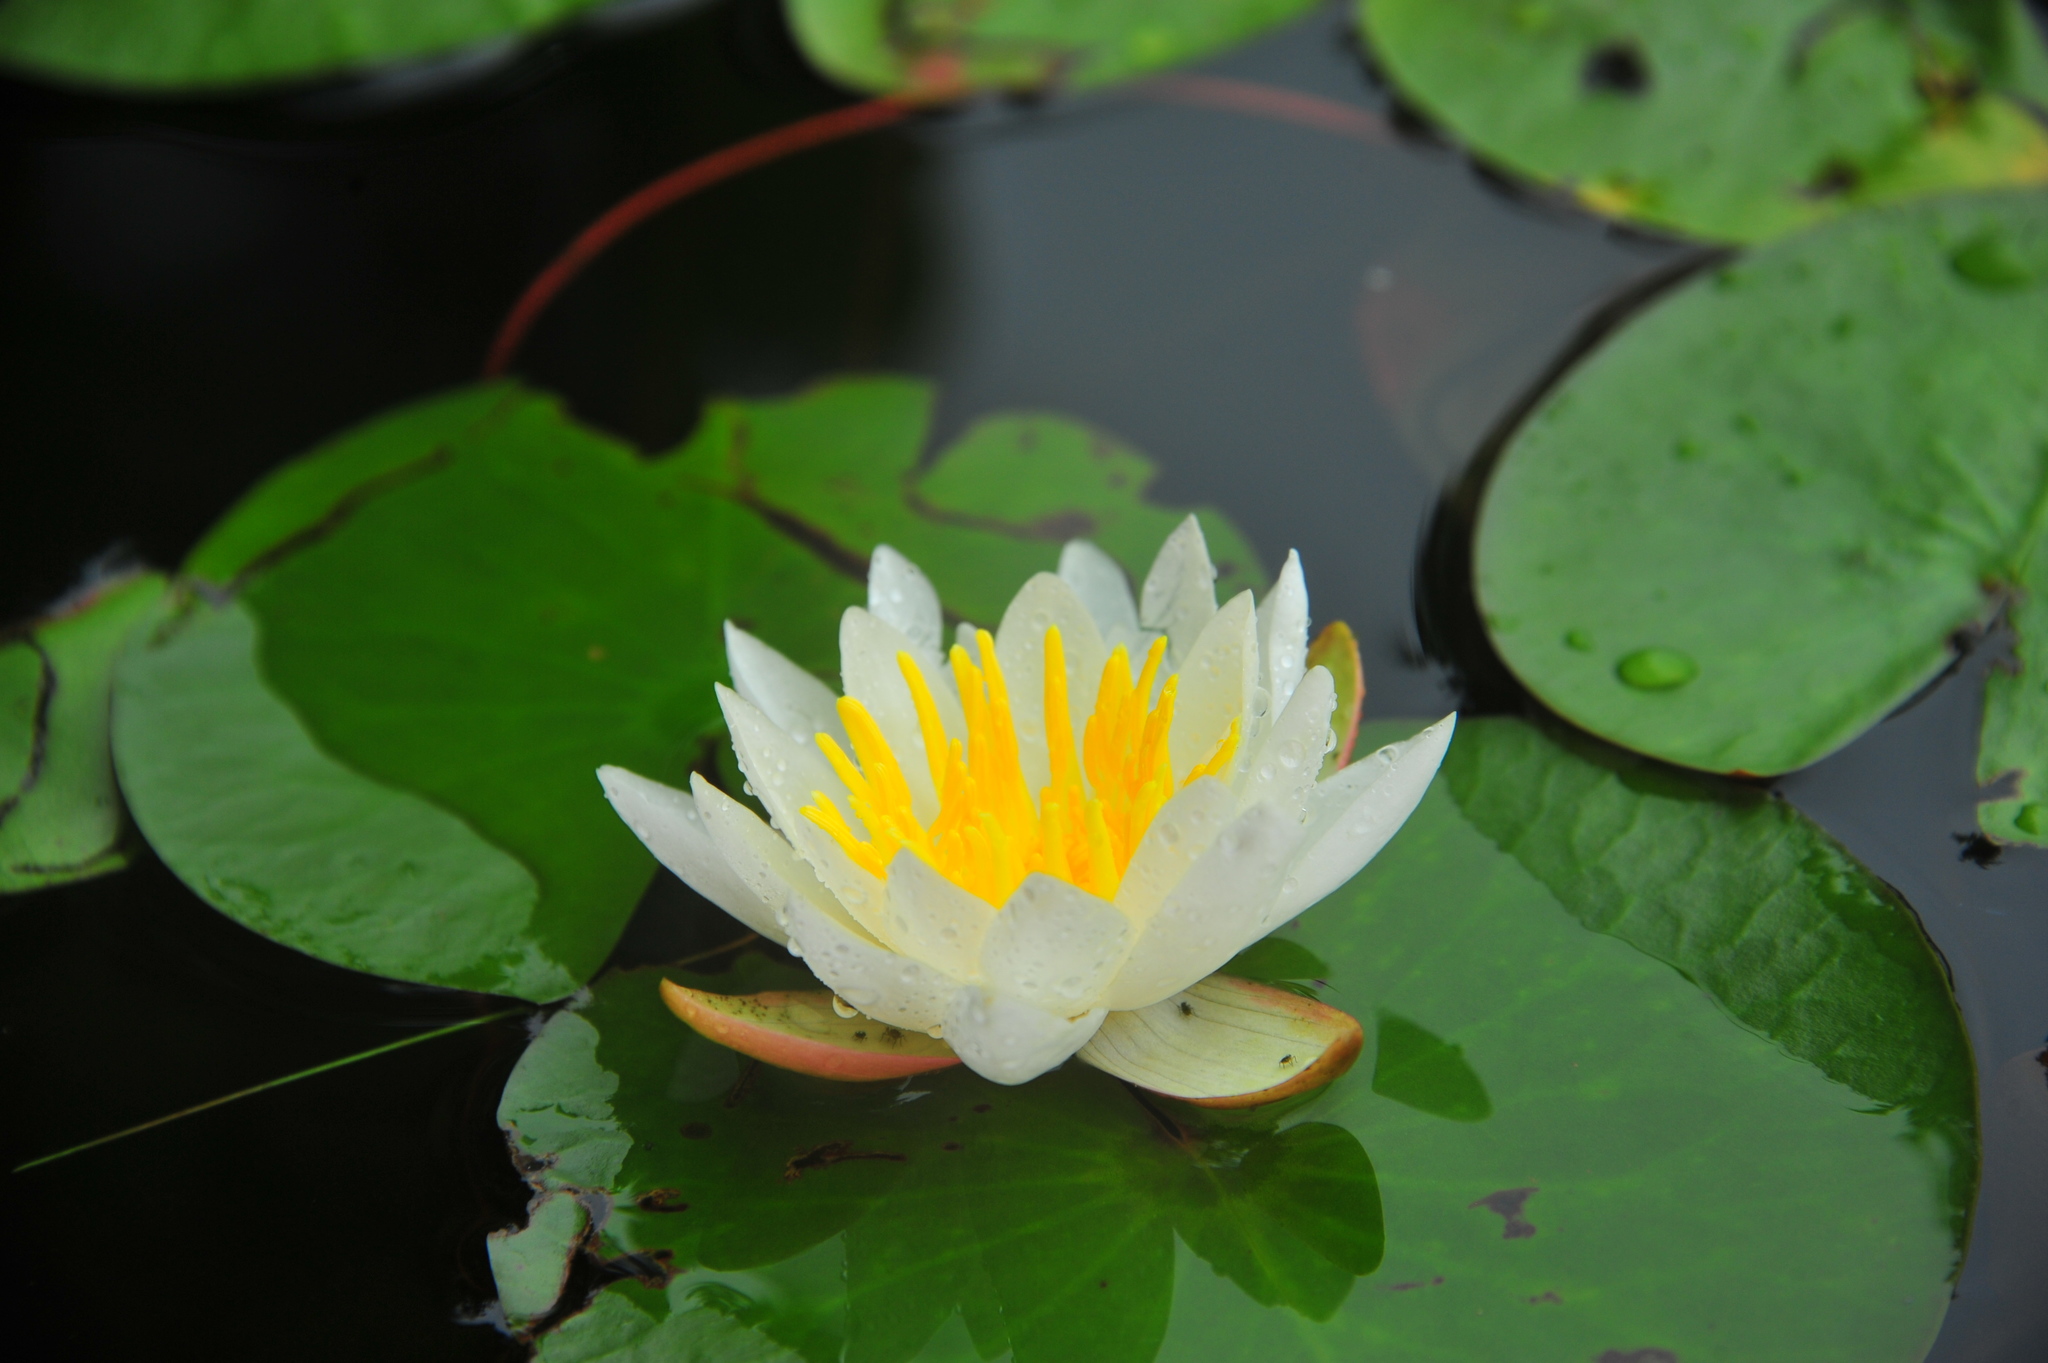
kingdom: Plantae
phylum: Tracheophyta
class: Magnoliopsida
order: Nymphaeales
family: Nymphaeaceae
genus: Nymphaea
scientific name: Nymphaea odorata
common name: Fragrant water-lily
